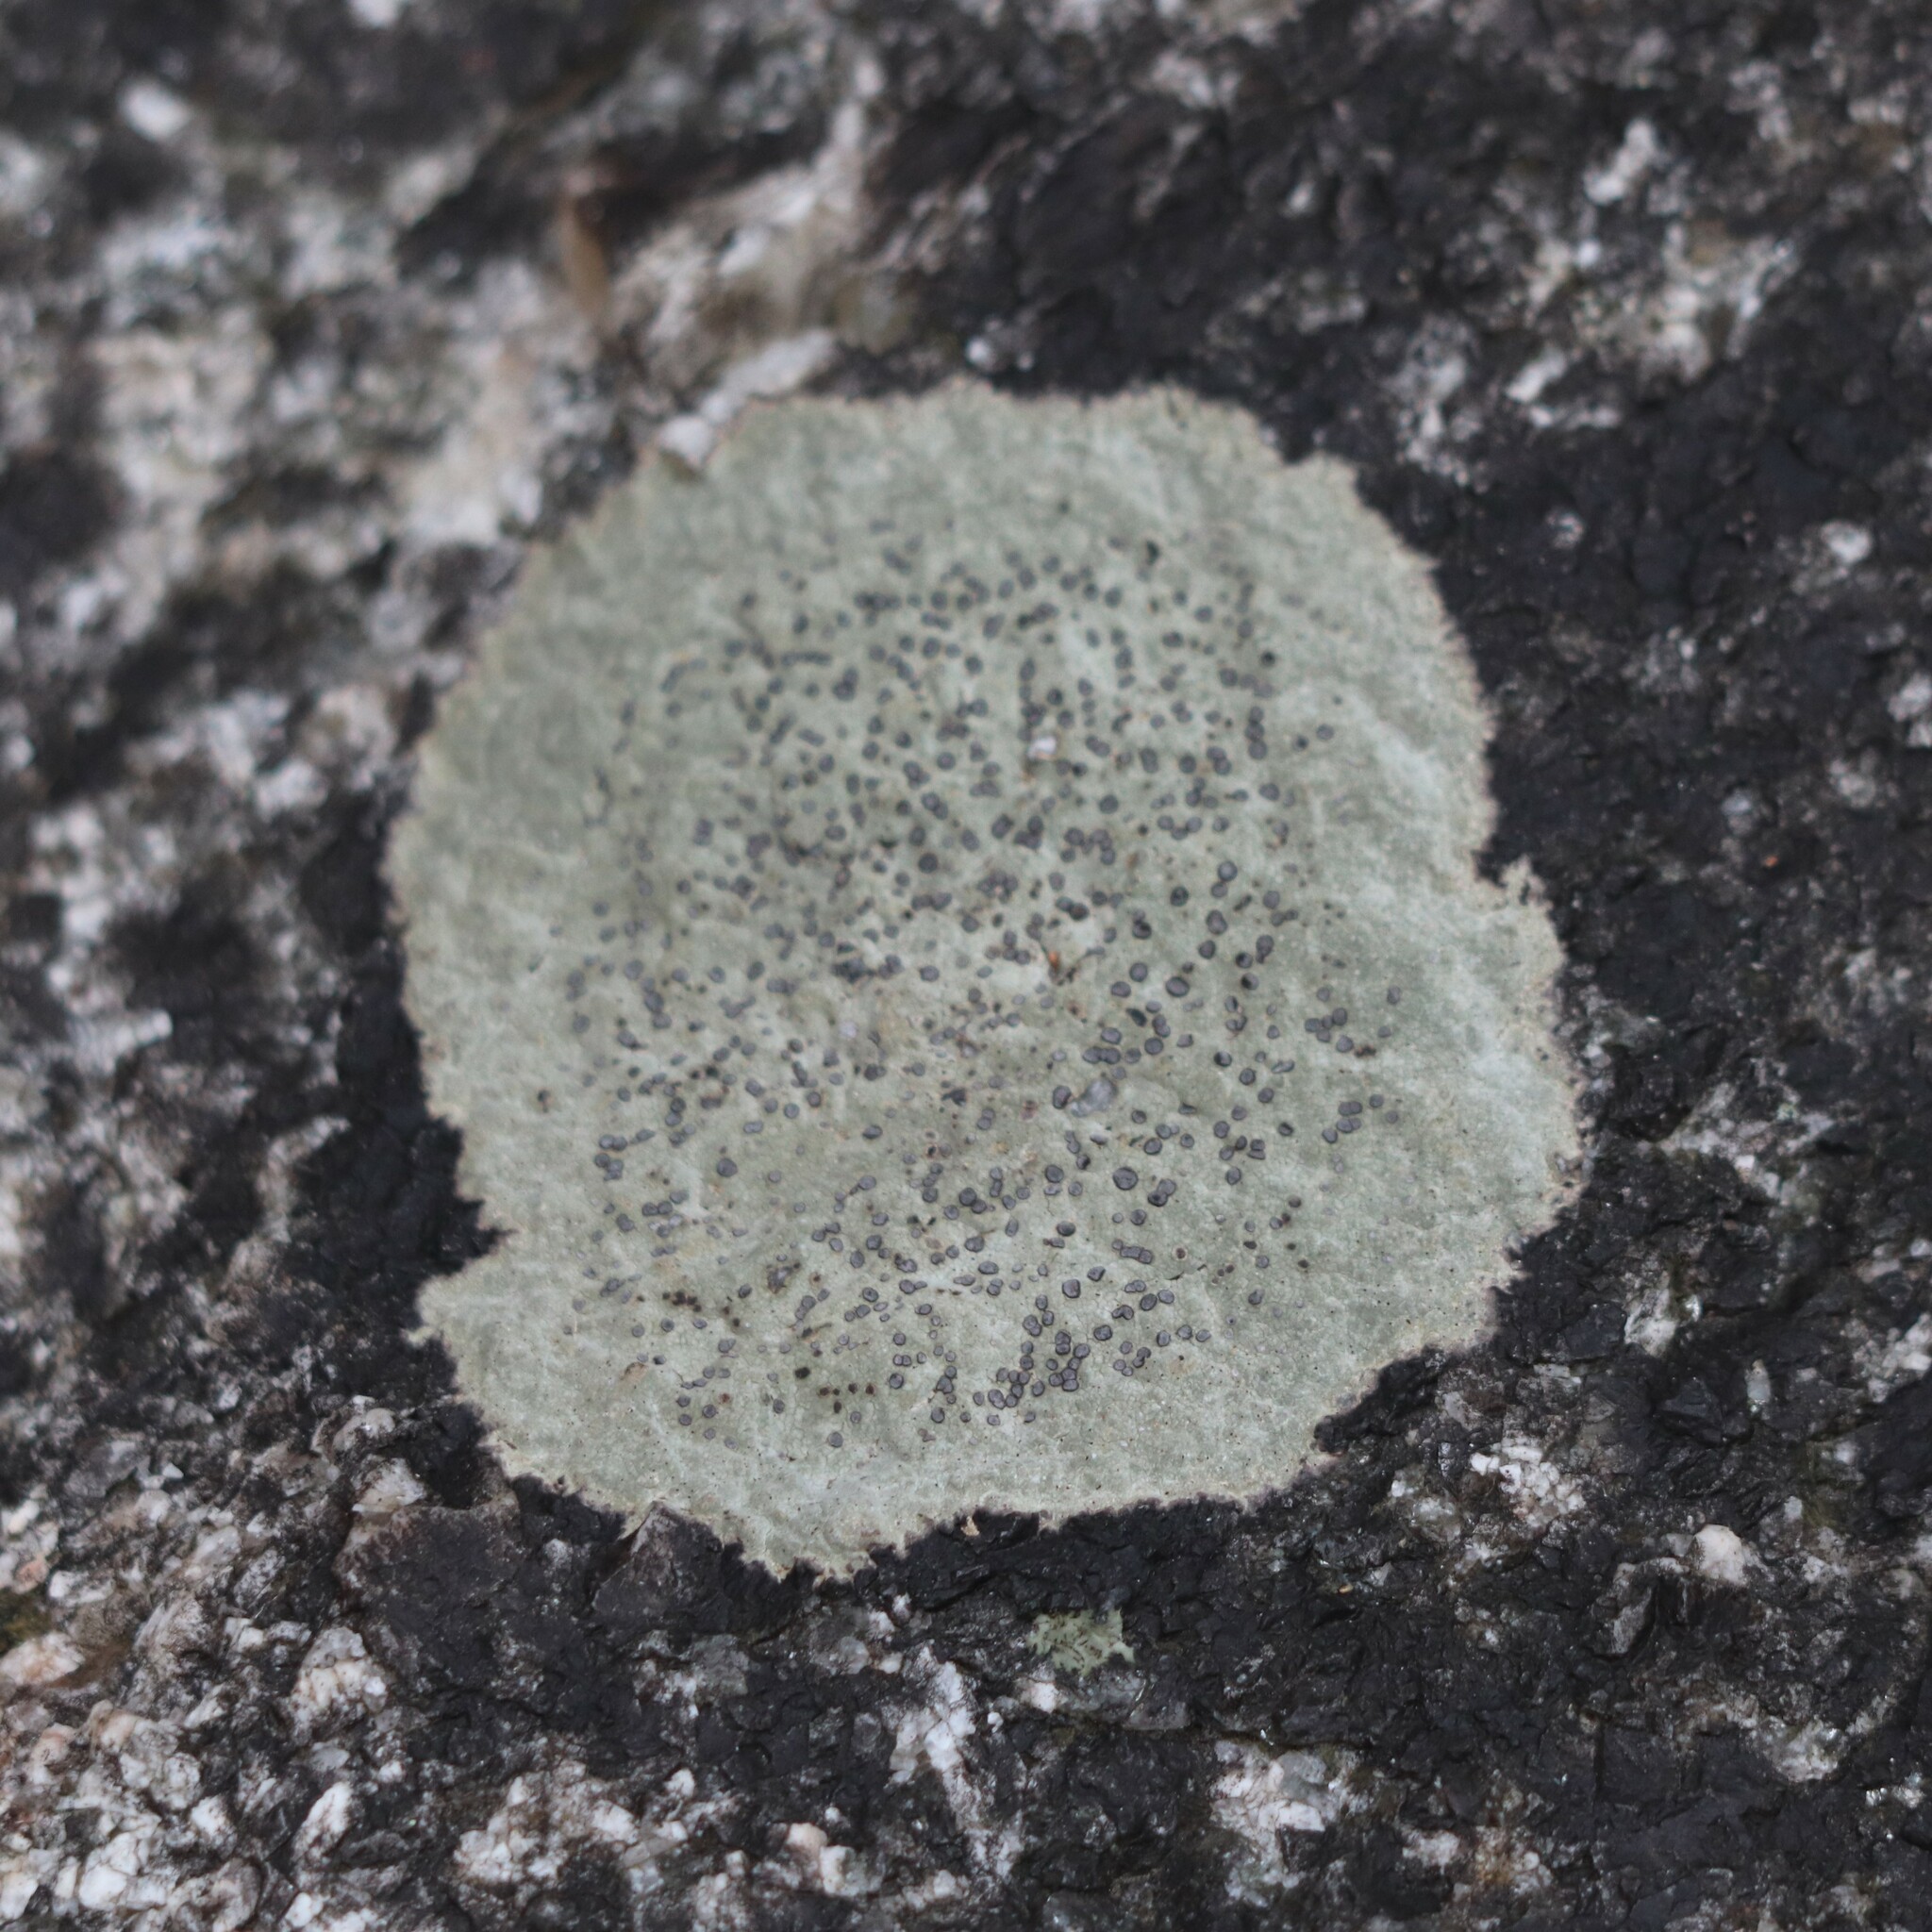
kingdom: Fungi
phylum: Ascomycota
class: Lecanoromycetes
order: Lecideales
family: Lecideaceae
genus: Porpidia
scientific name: Porpidia albocaerulescens
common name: Smokey-eyed boulder lichen
